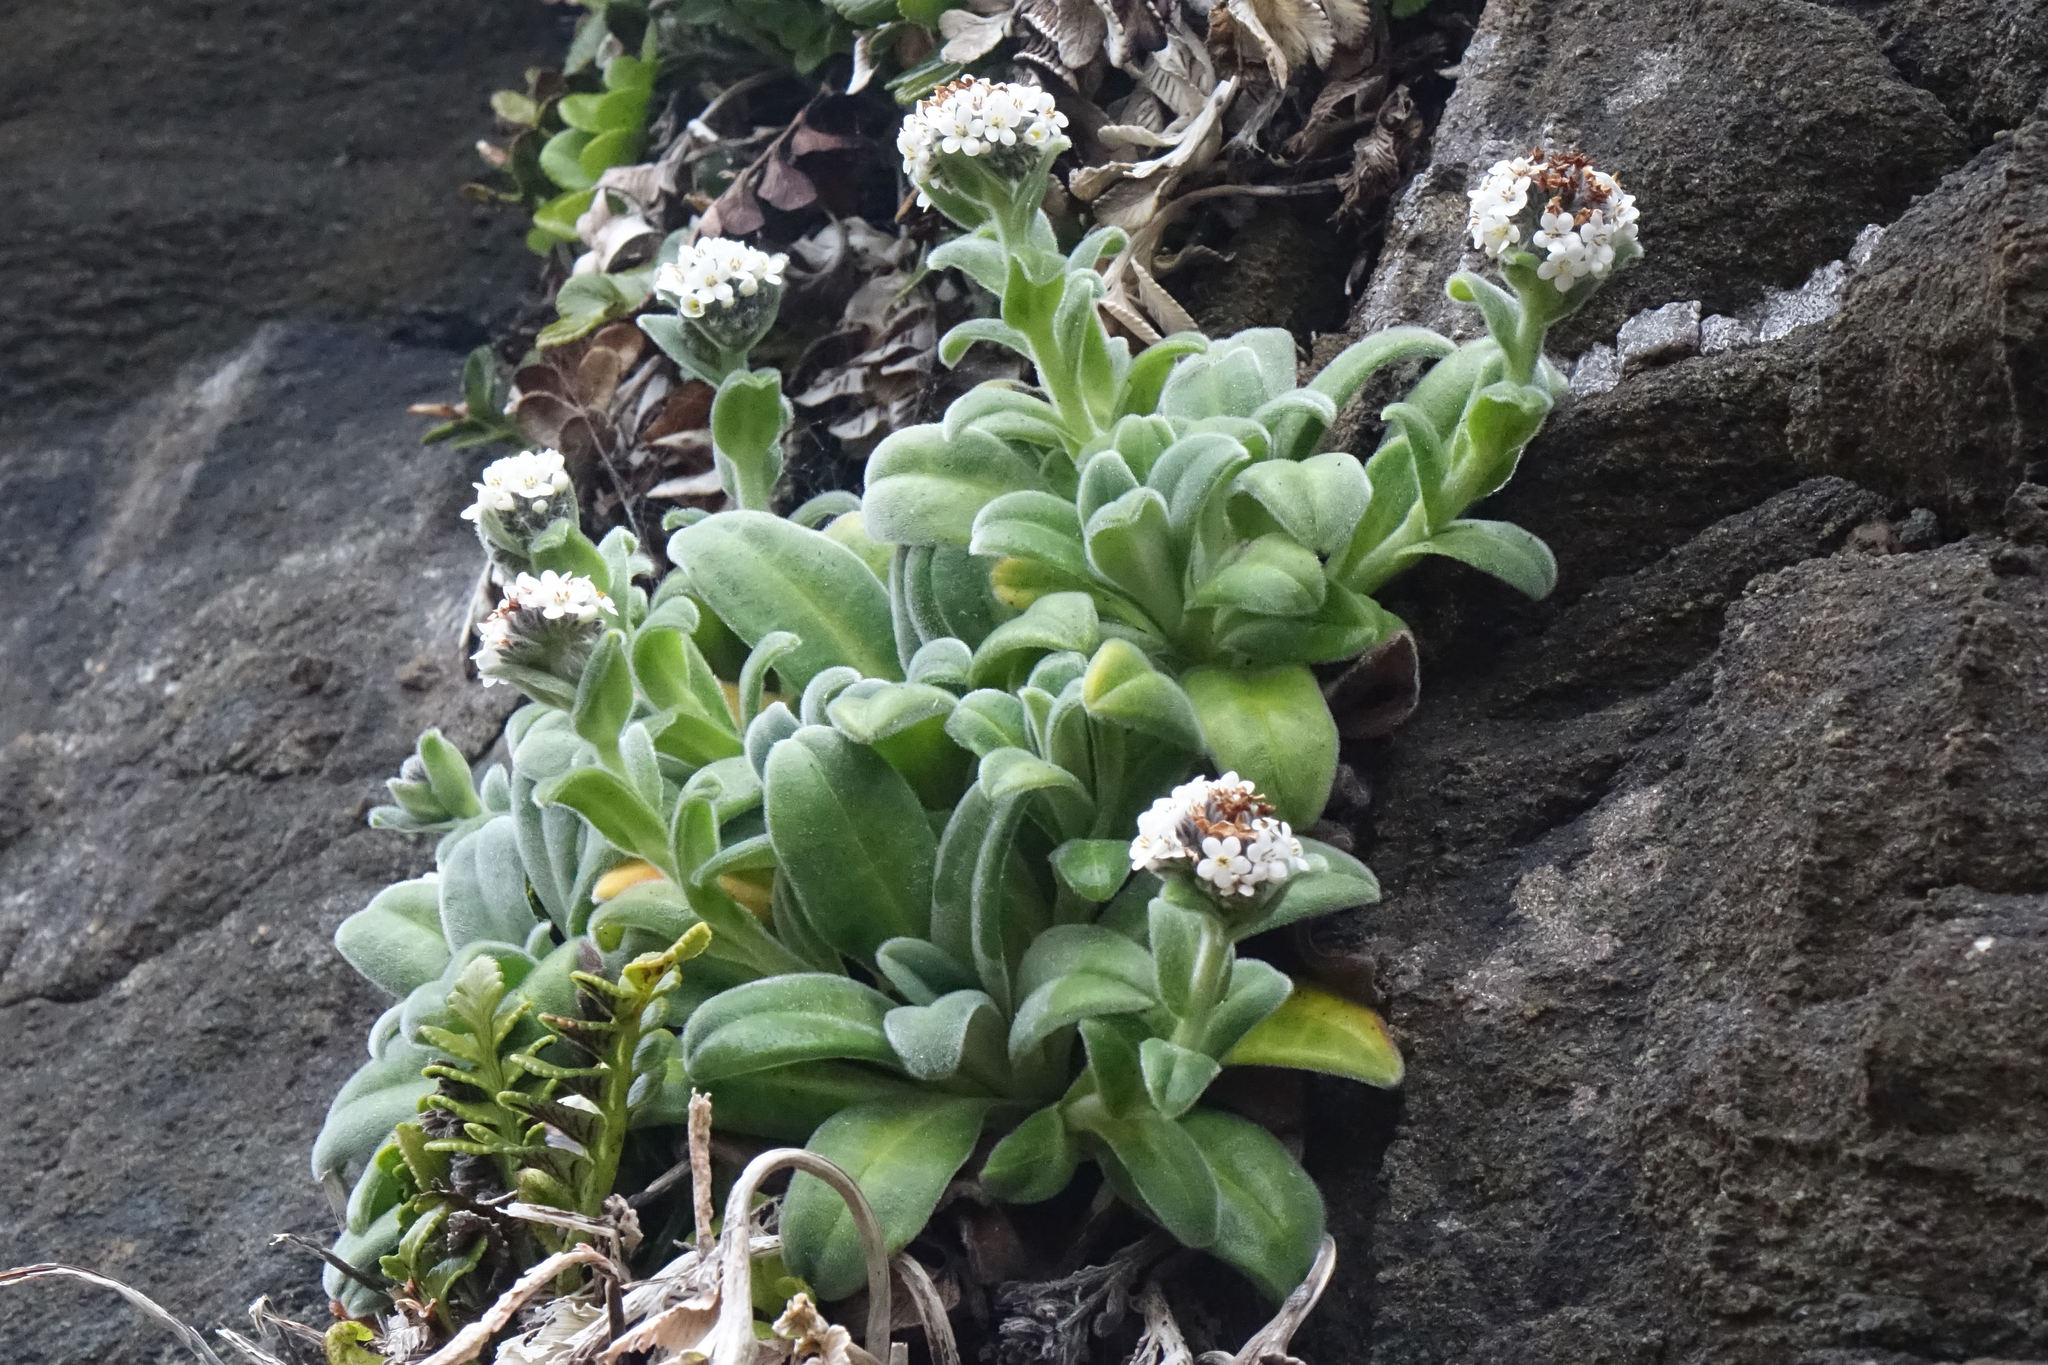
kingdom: Plantae
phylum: Tracheophyta
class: Magnoliopsida
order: Boraginales
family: Boraginaceae
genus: Myosotis
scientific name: Myosotis rakiura
